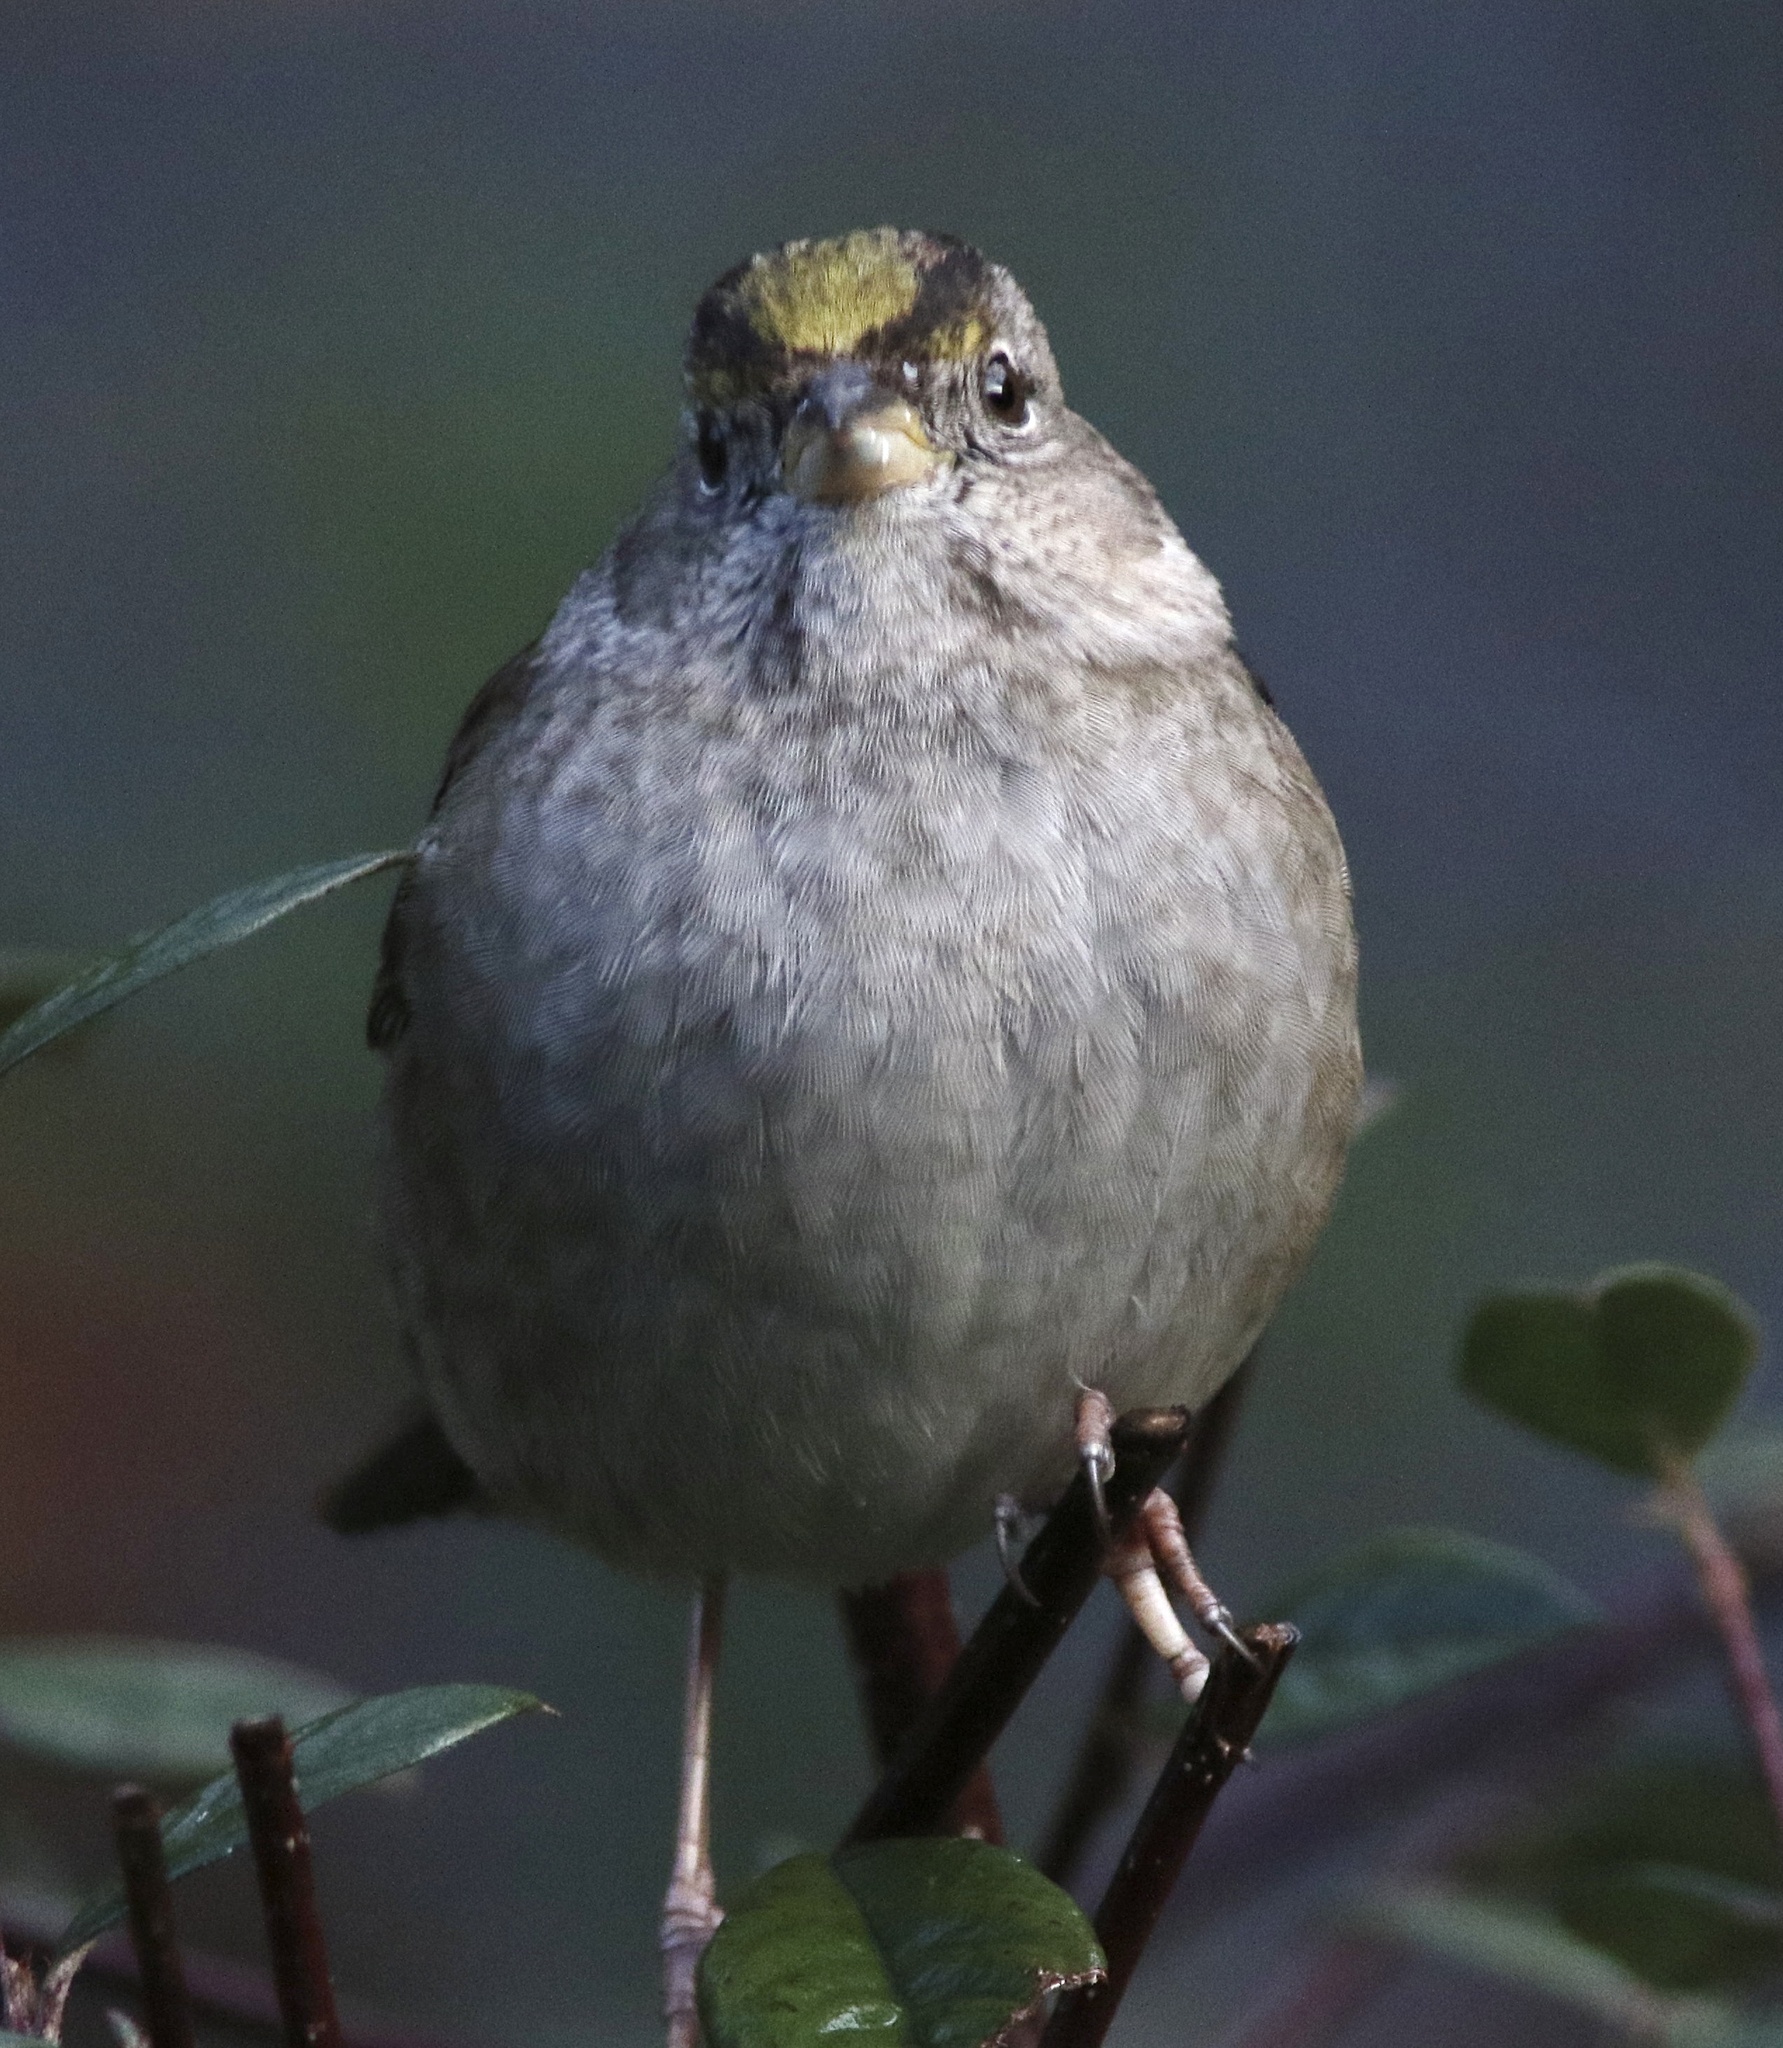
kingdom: Animalia
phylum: Chordata
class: Aves
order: Passeriformes
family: Passerellidae
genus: Zonotrichia
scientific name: Zonotrichia atricapilla
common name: Golden-crowned sparrow
